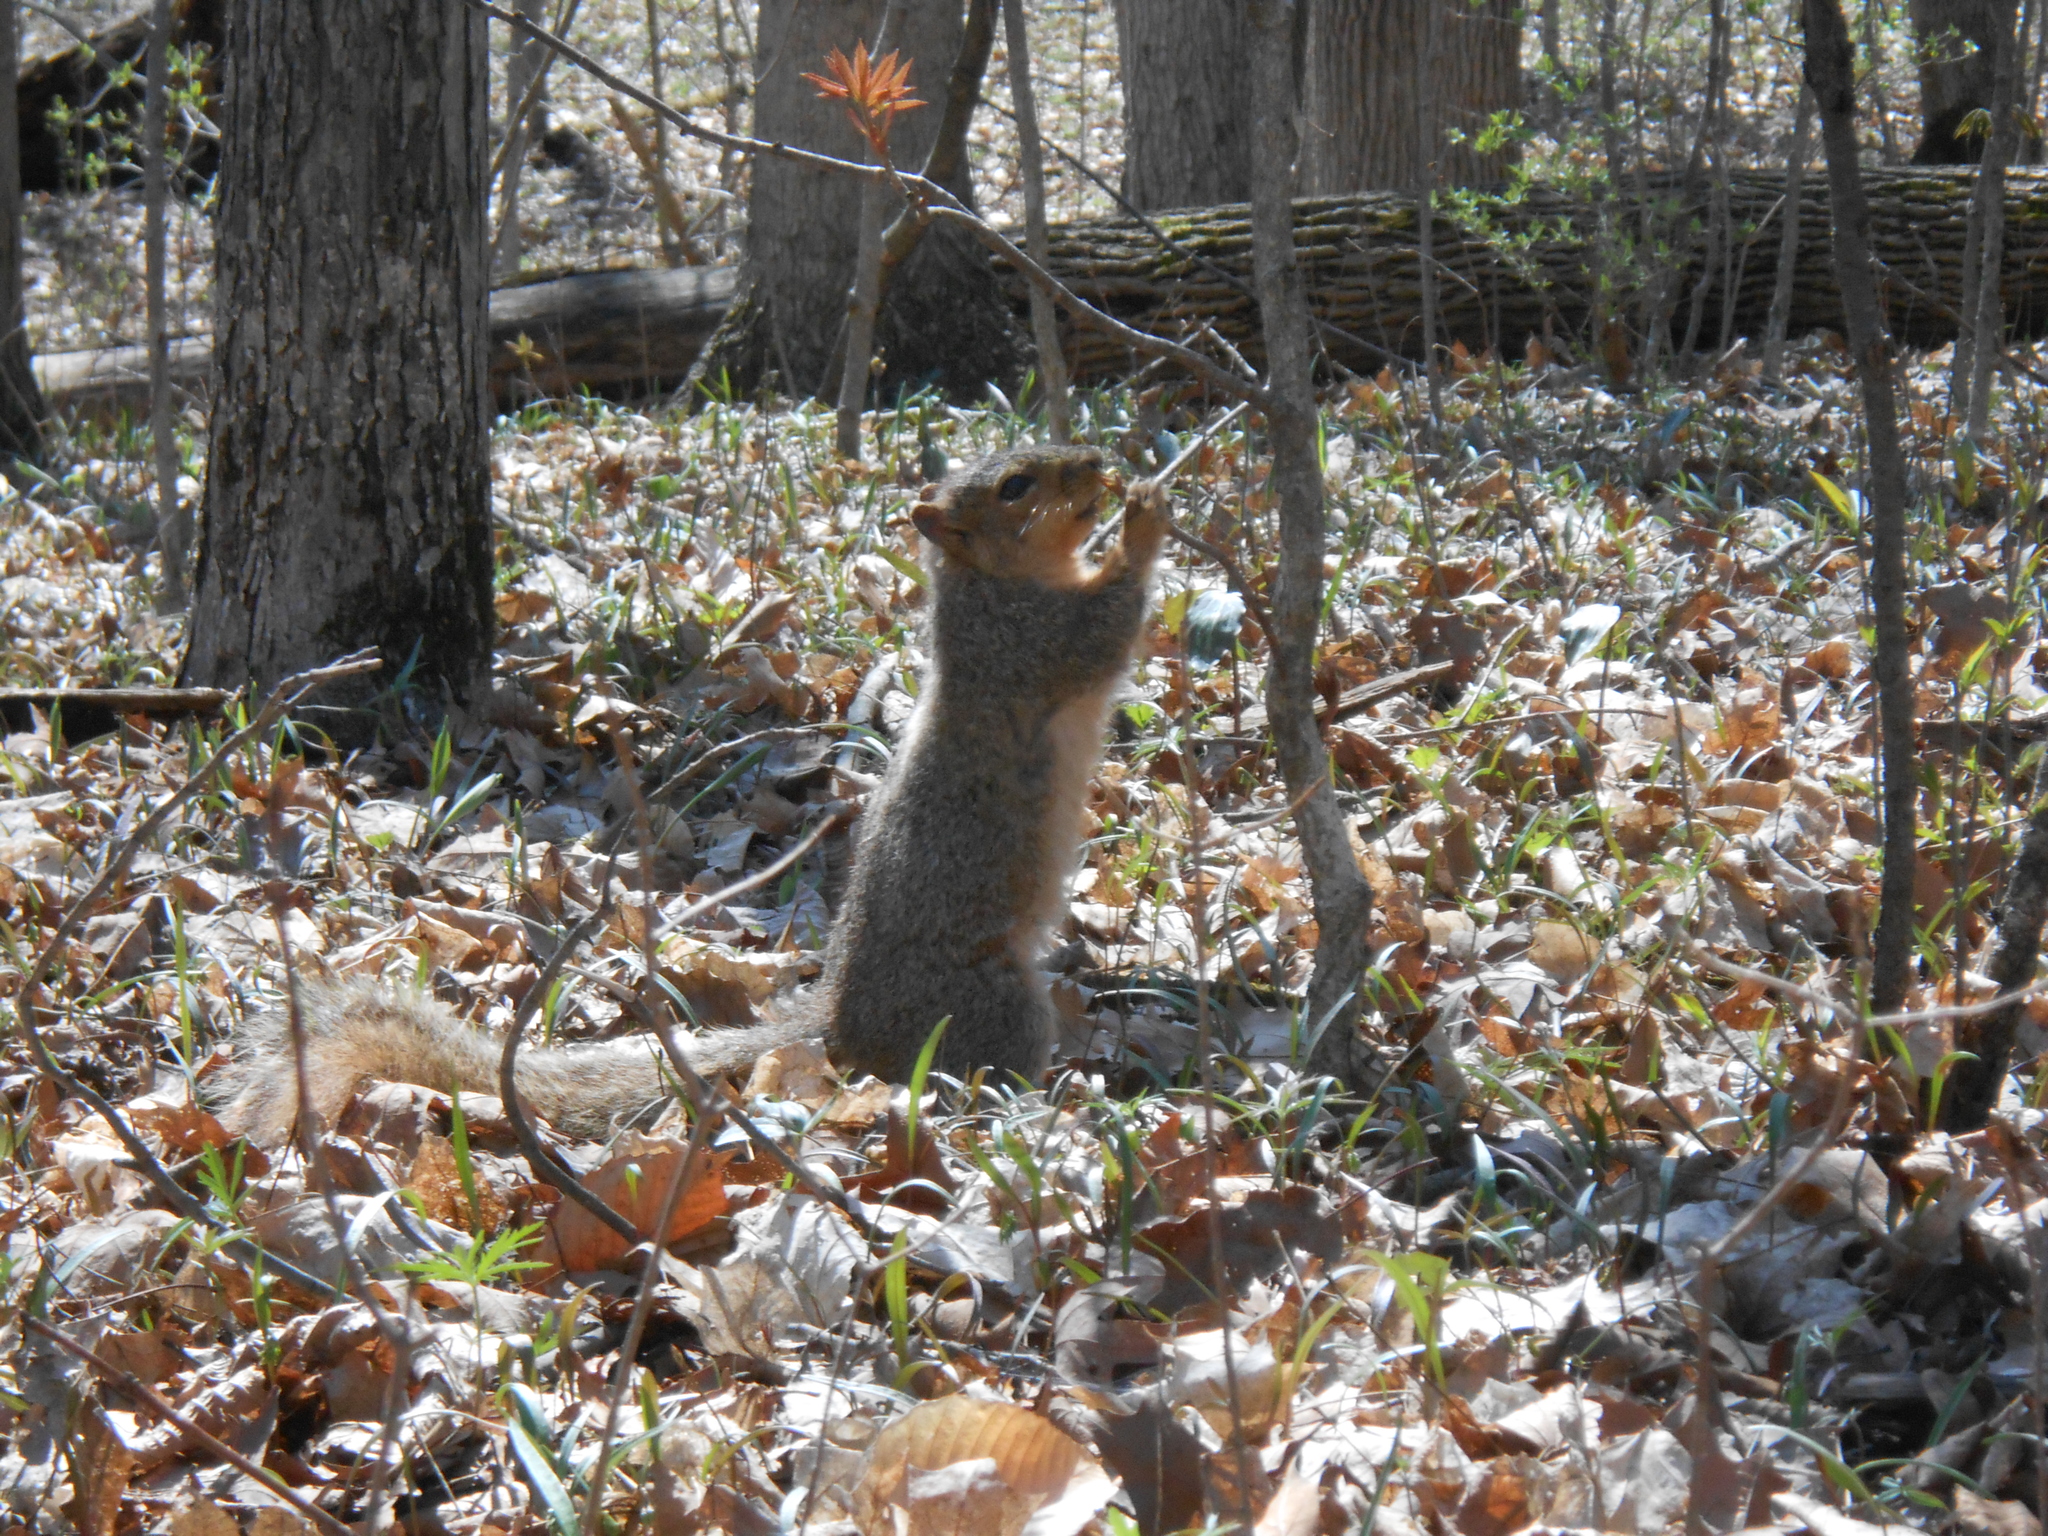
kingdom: Animalia
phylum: Chordata
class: Mammalia
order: Rodentia
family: Sciuridae
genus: Sciurus
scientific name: Sciurus niger
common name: Fox squirrel
